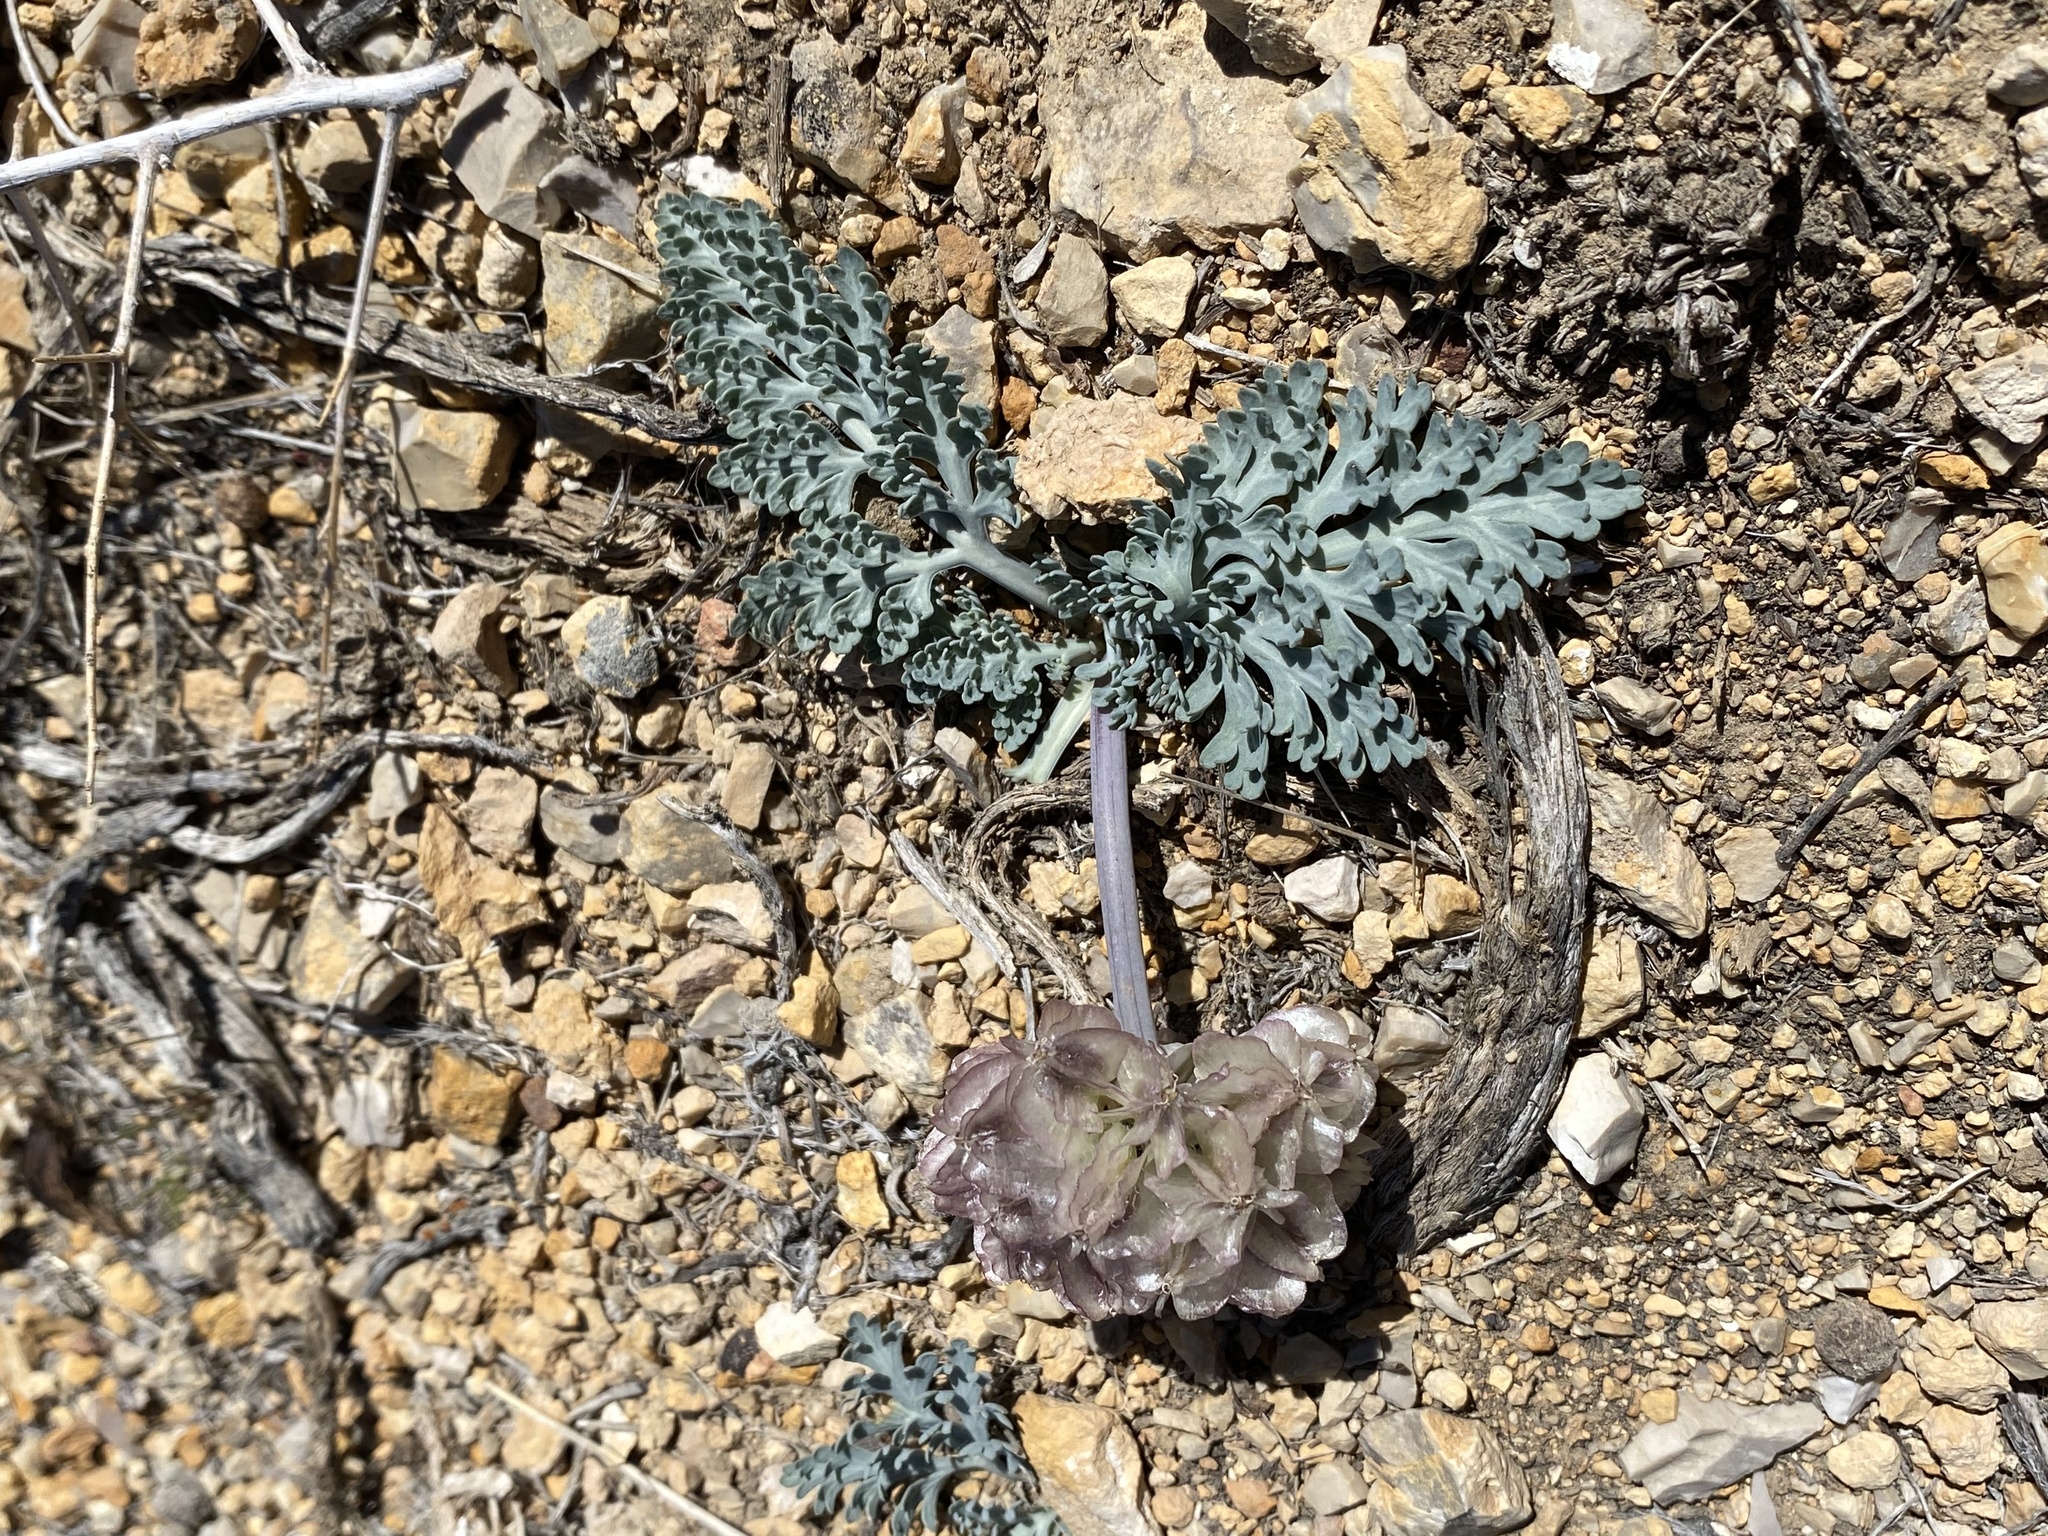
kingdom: Plantae
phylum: Tracheophyta
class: Magnoliopsida
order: Apiales
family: Apiaceae
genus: Vesper
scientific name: Vesper purpurascens
